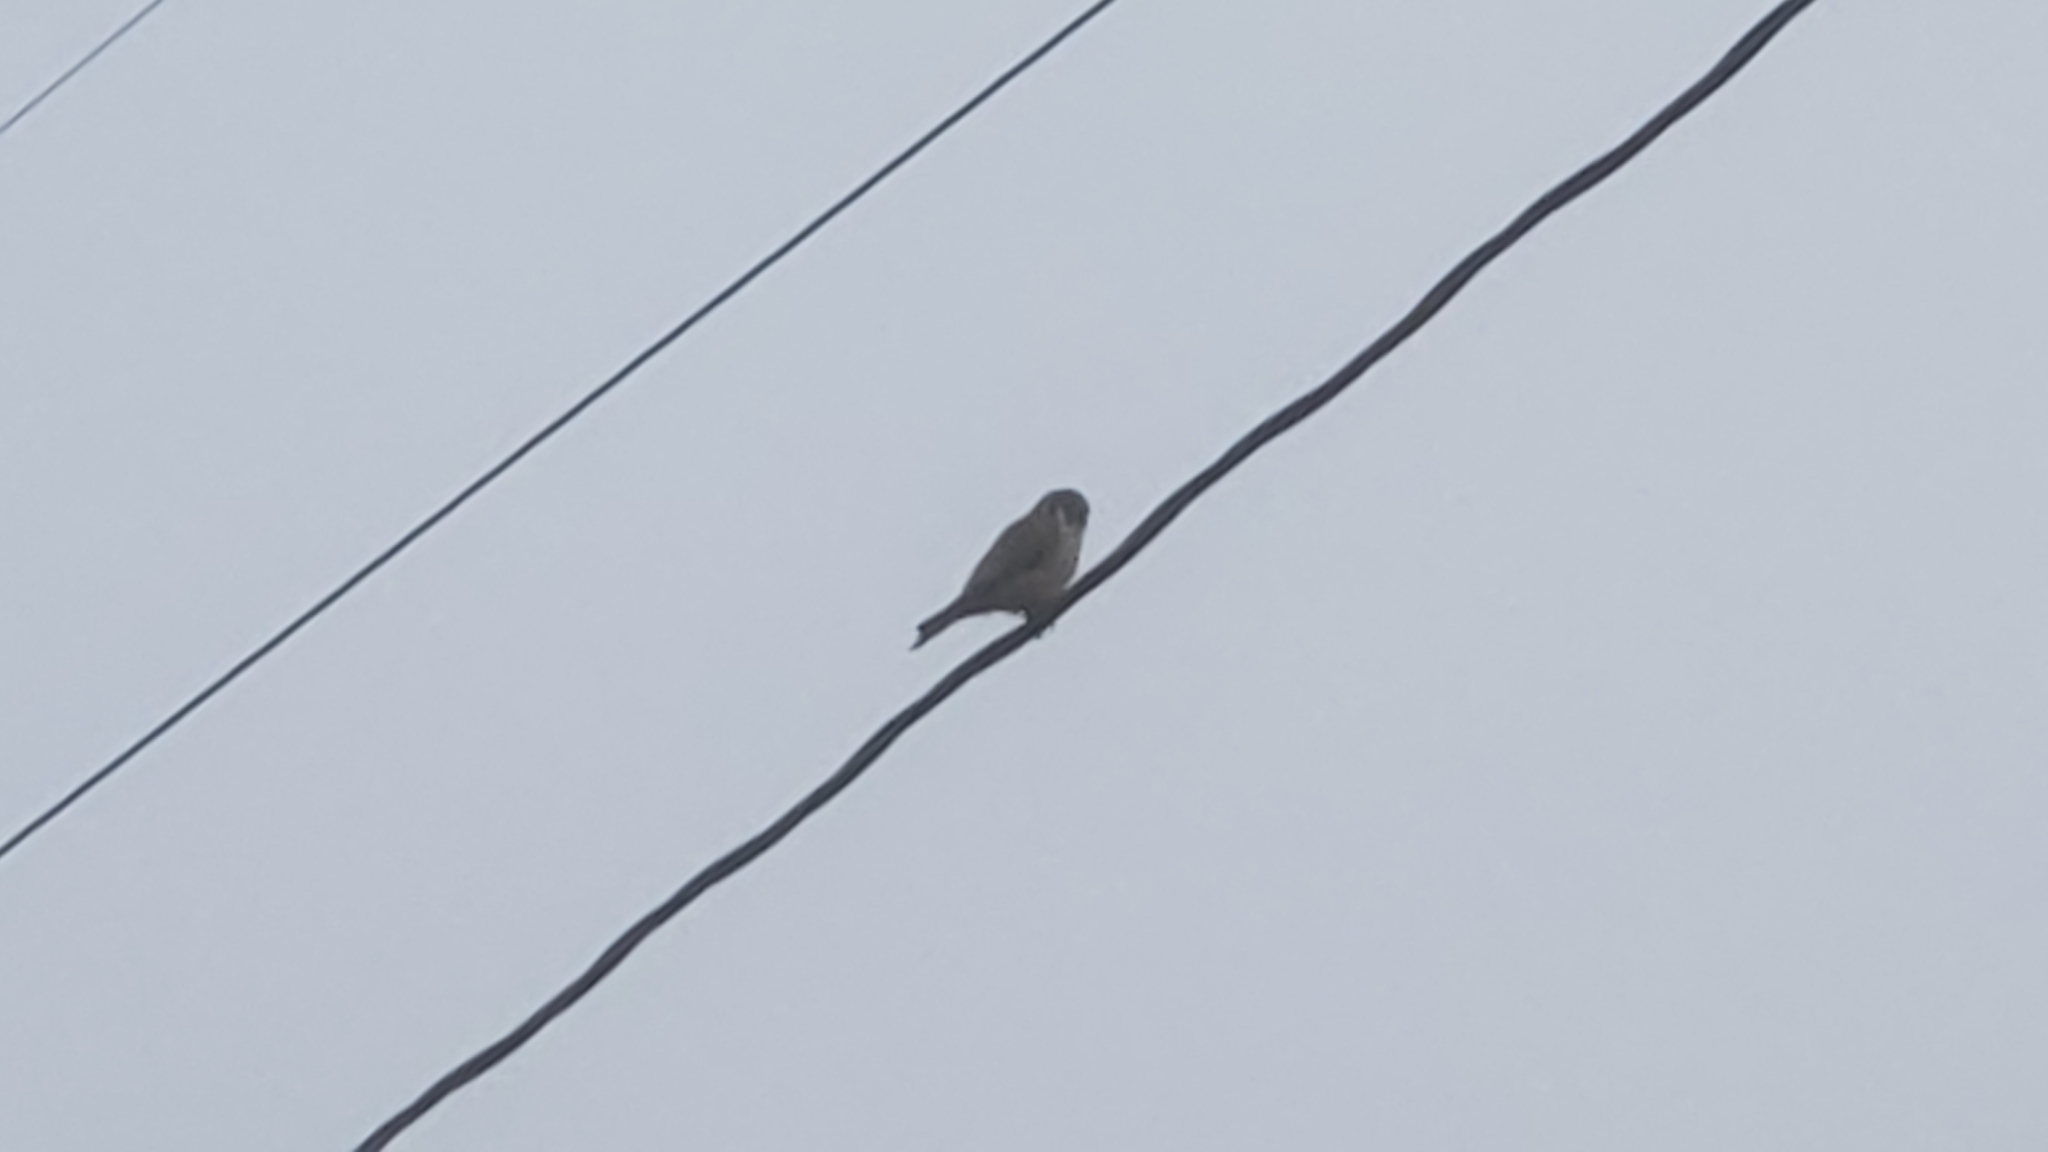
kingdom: Animalia
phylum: Chordata
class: Aves
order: Falconiformes
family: Falconidae
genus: Falco
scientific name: Falco sparverius
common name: American kestrel
